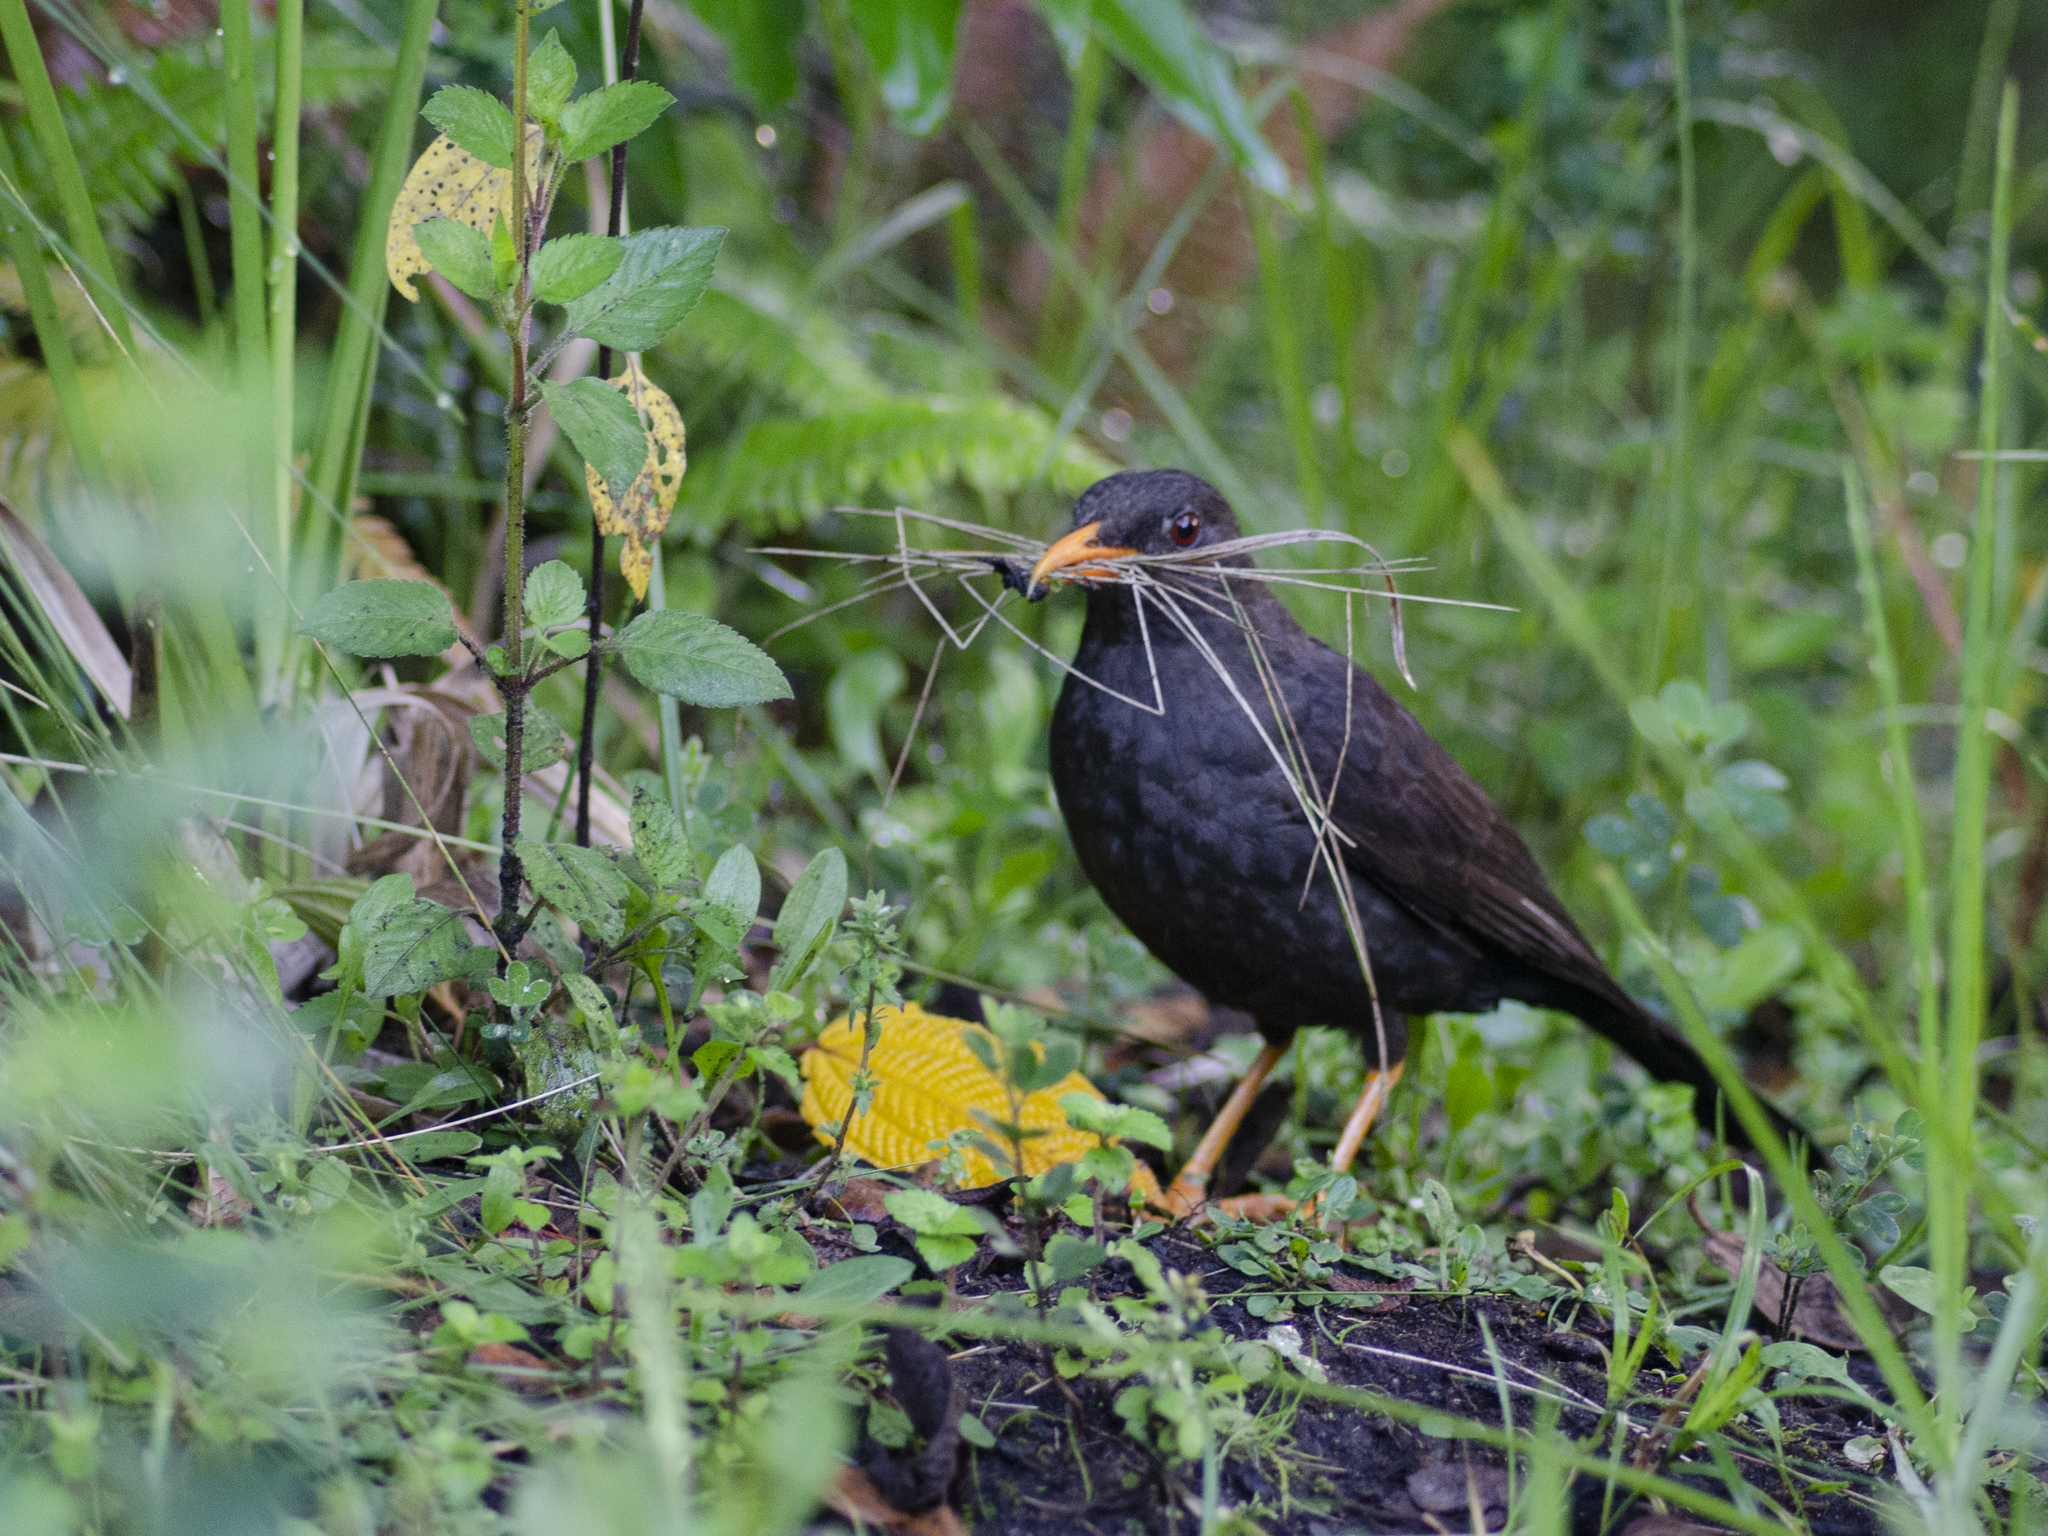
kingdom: Animalia
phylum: Chordata
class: Aves
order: Passeriformes
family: Turdidae
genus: Turdus
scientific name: Turdus fuscater
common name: Great thrush
